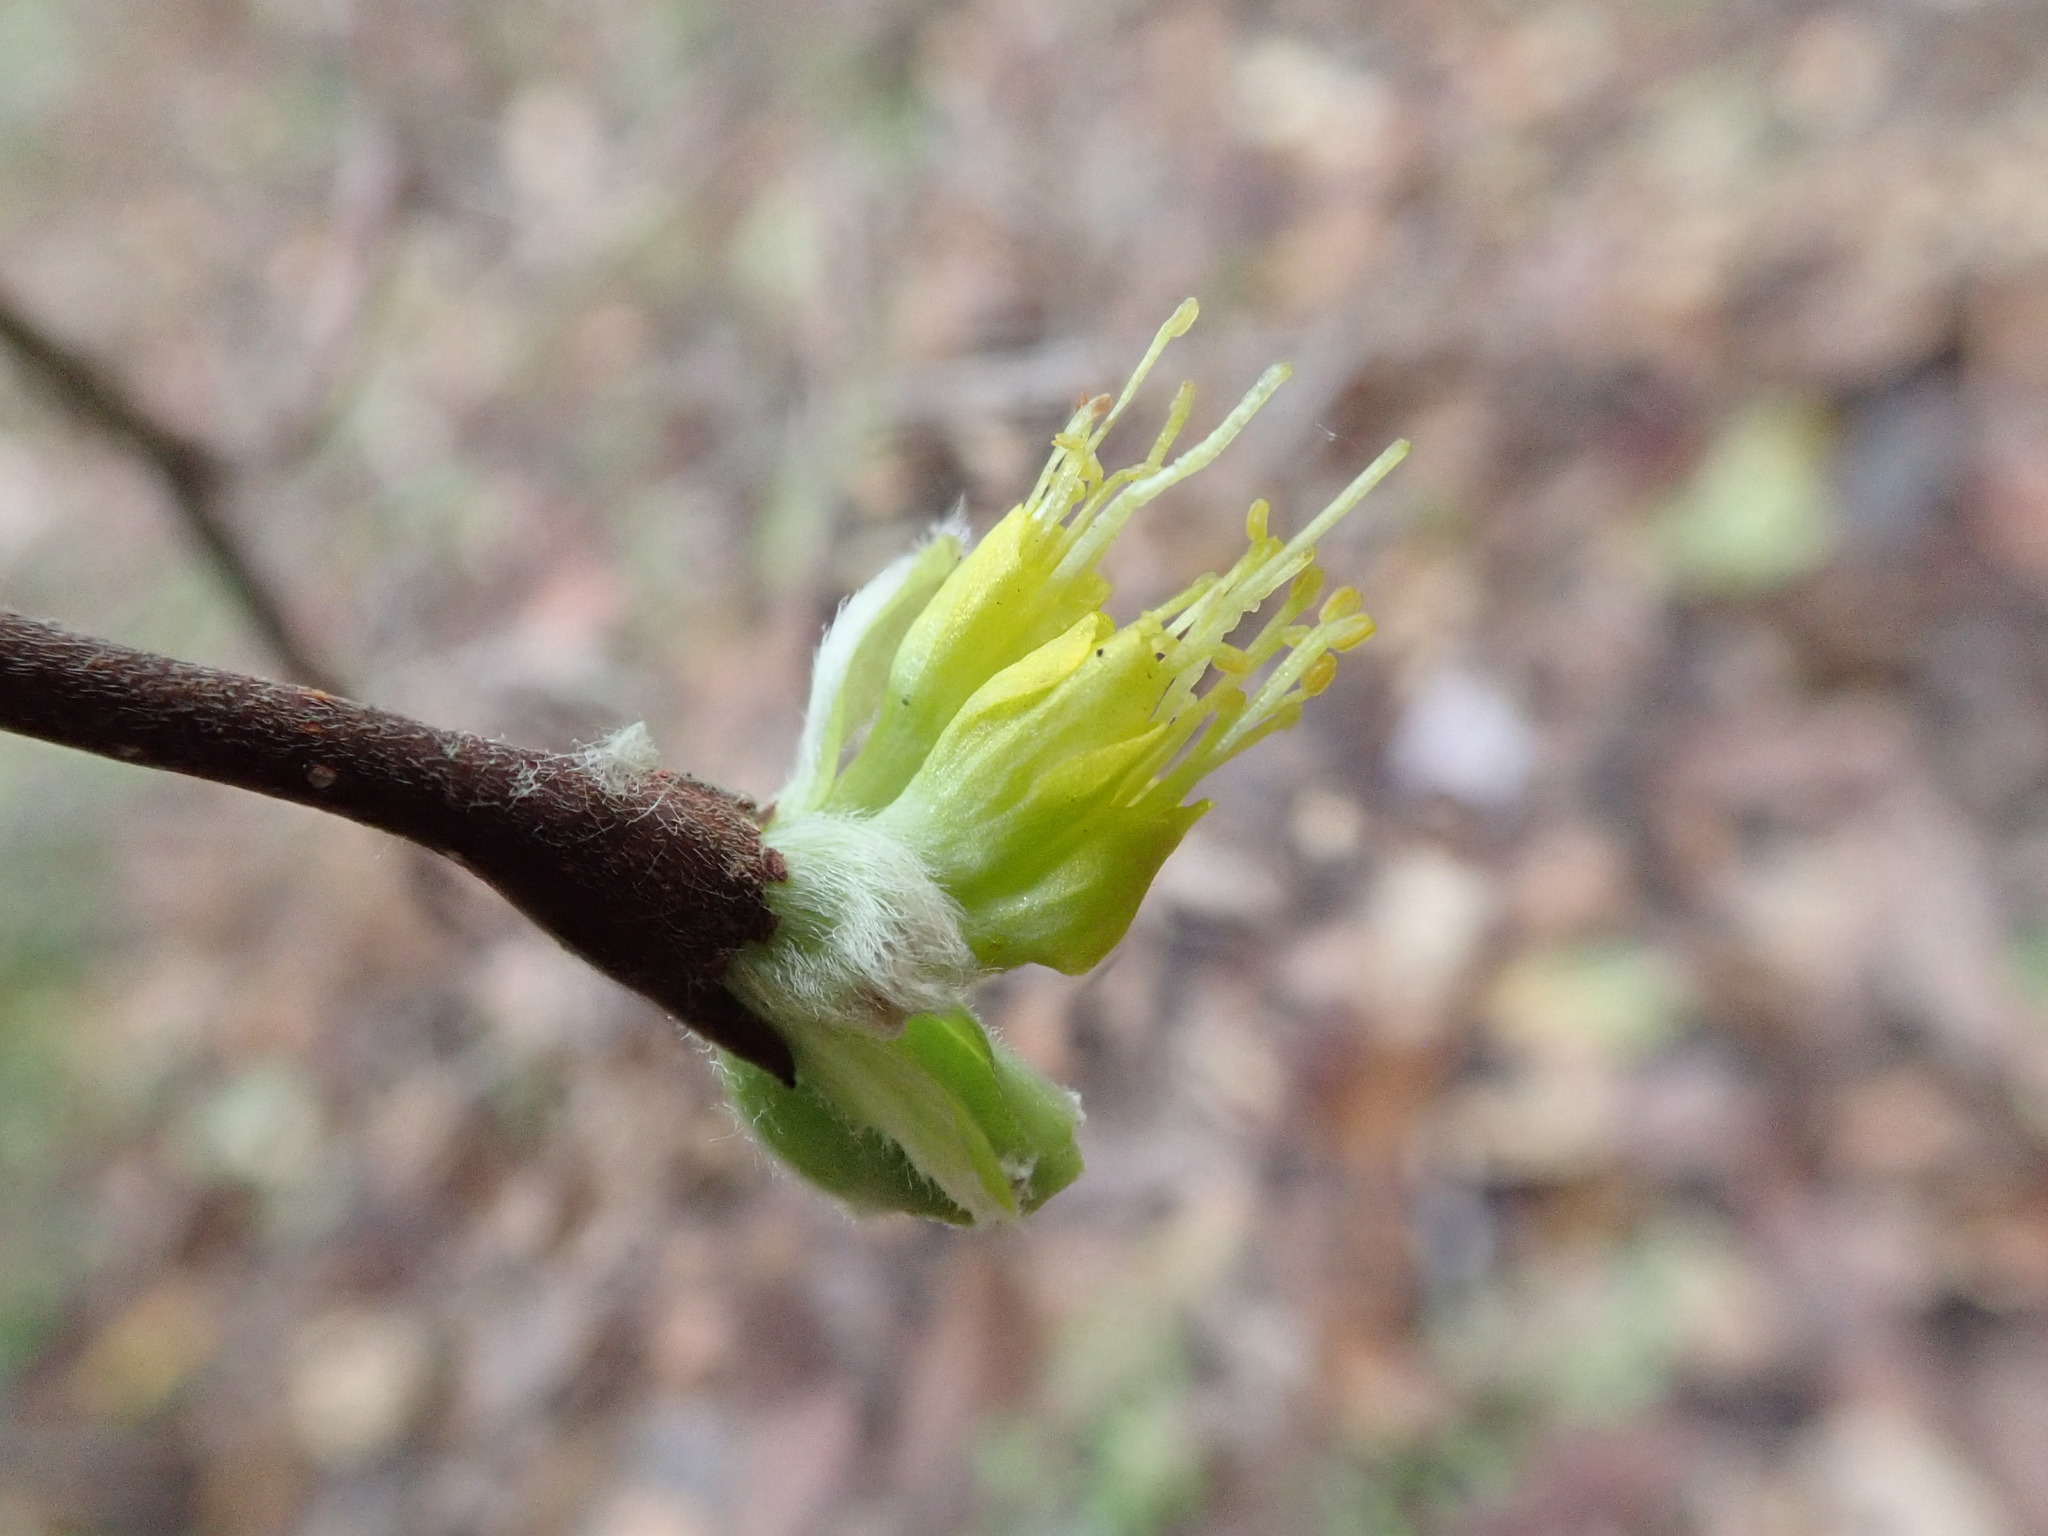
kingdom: Plantae
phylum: Tracheophyta
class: Magnoliopsida
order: Malvales
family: Thymelaeaceae
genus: Dirca
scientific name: Dirca occidentalis
